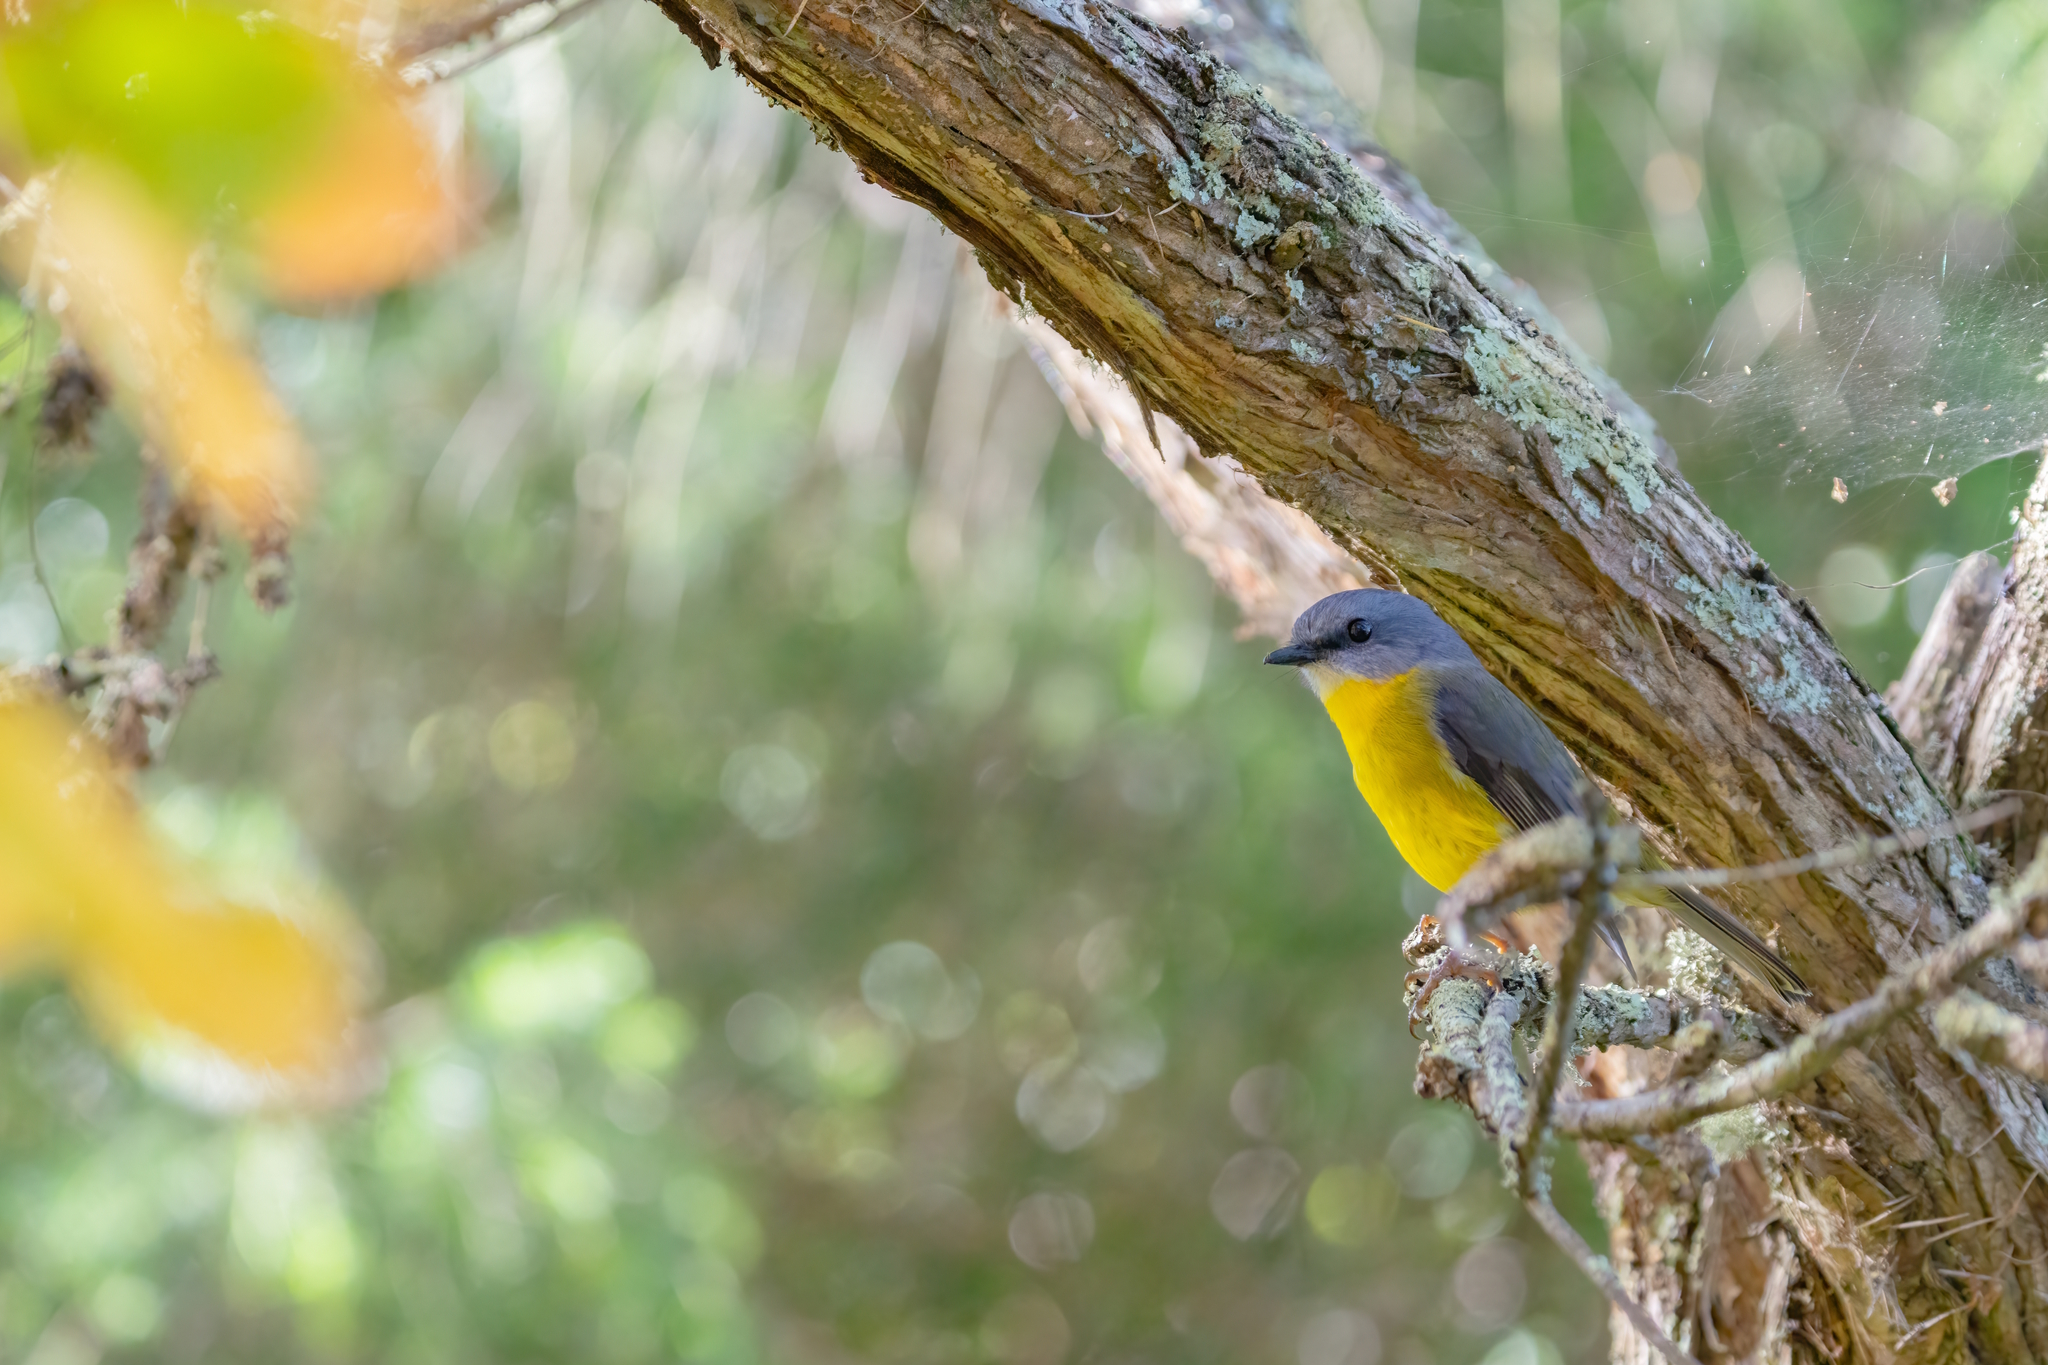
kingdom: Animalia
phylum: Chordata
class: Aves
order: Passeriformes
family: Petroicidae
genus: Eopsaltria
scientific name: Eopsaltria australis
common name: Eastern yellow robin
